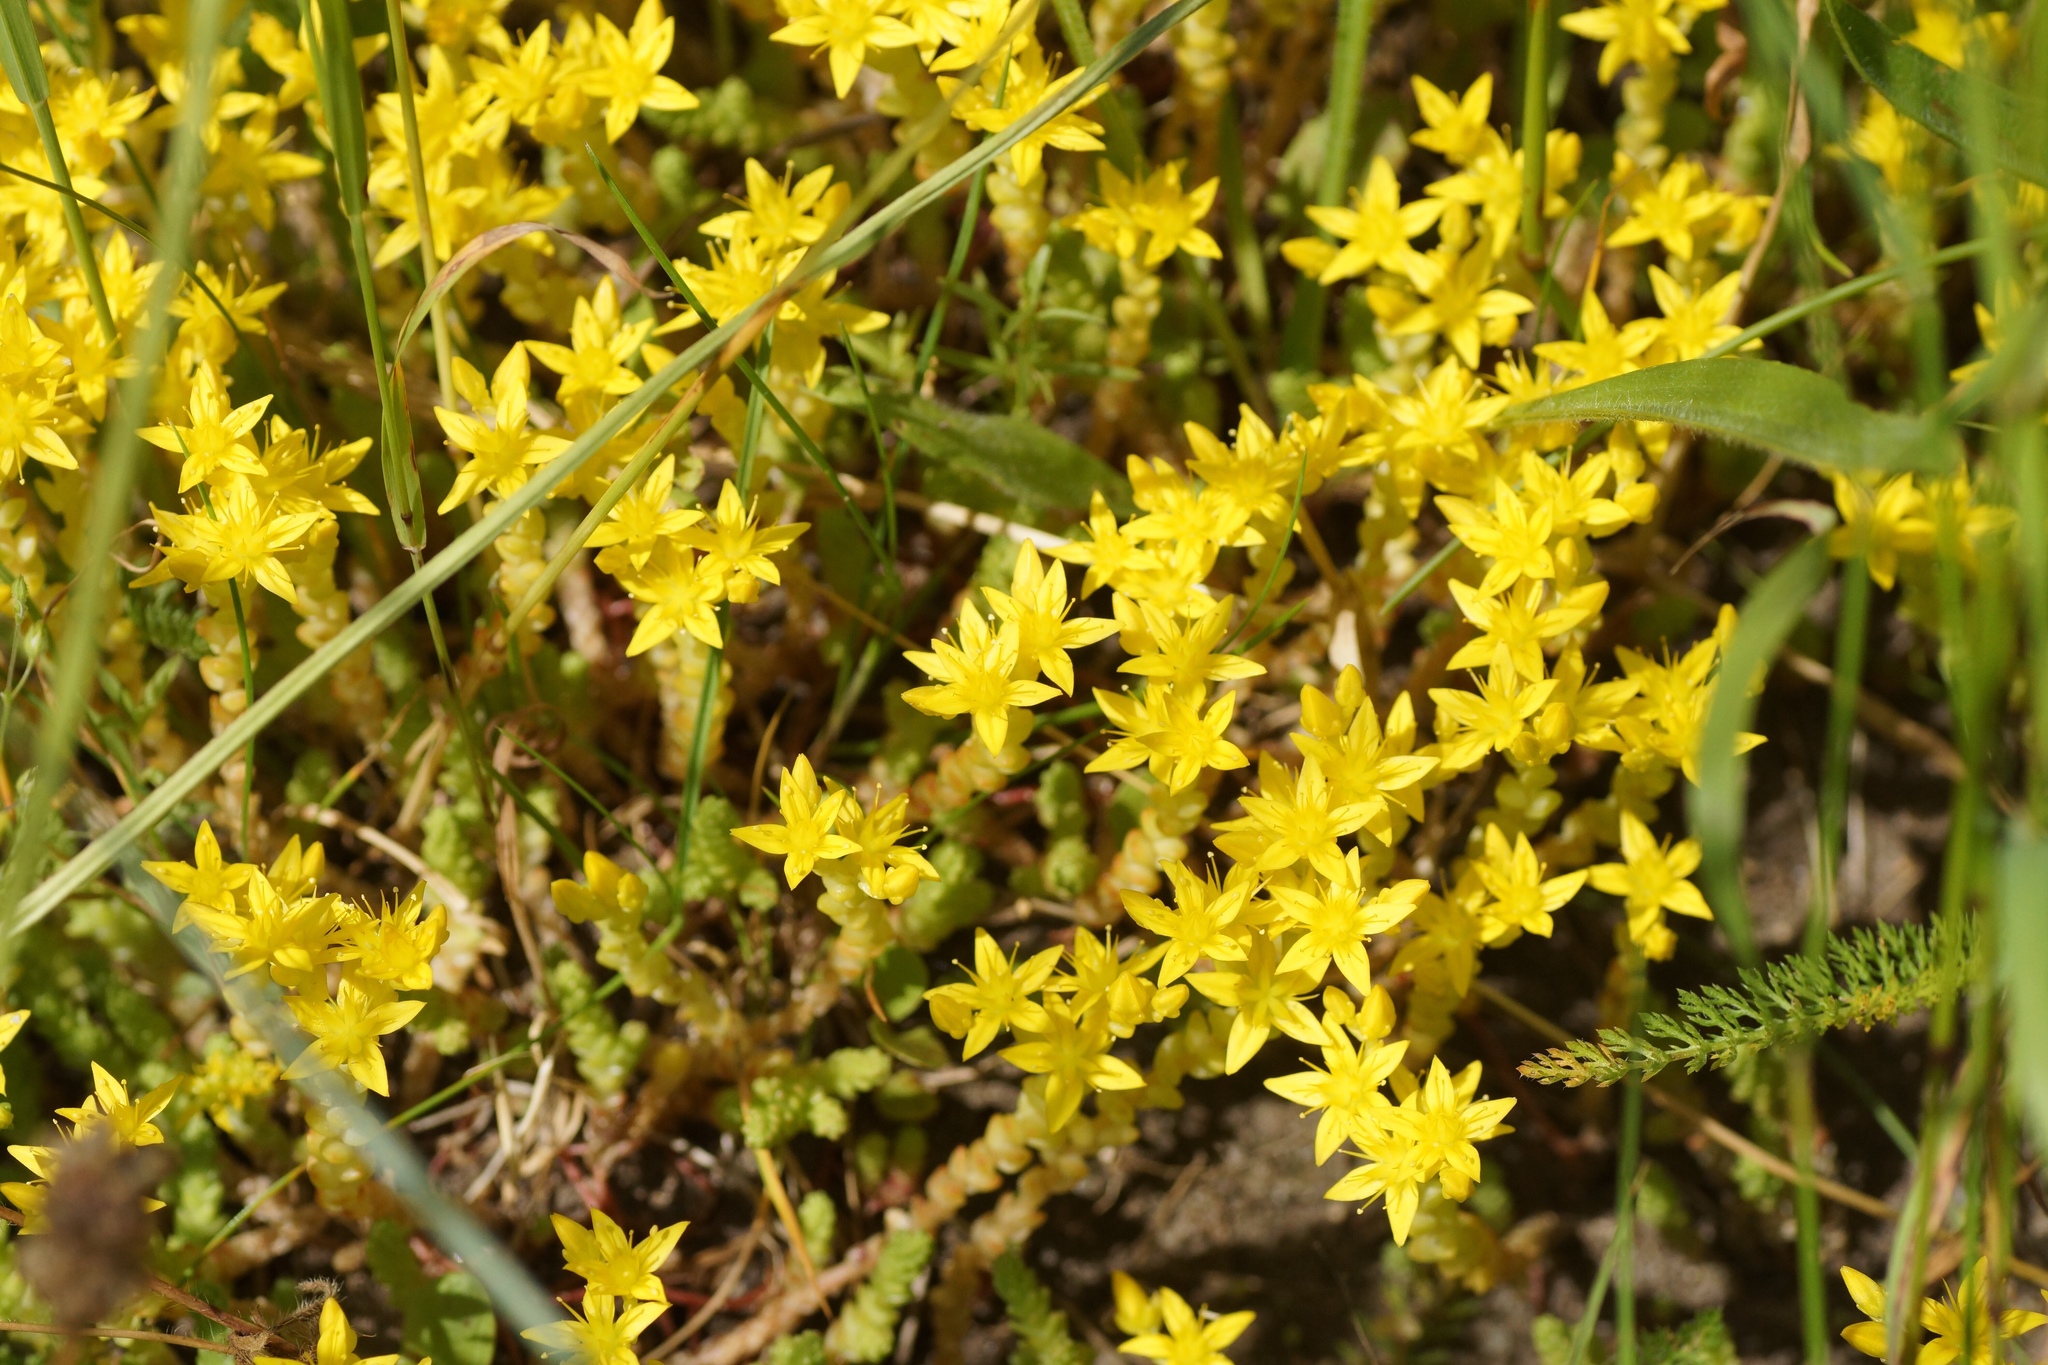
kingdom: Plantae
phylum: Tracheophyta
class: Magnoliopsida
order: Saxifragales
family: Crassulaceae
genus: Sedum
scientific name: Sedum acre
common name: Biting stonecrop
